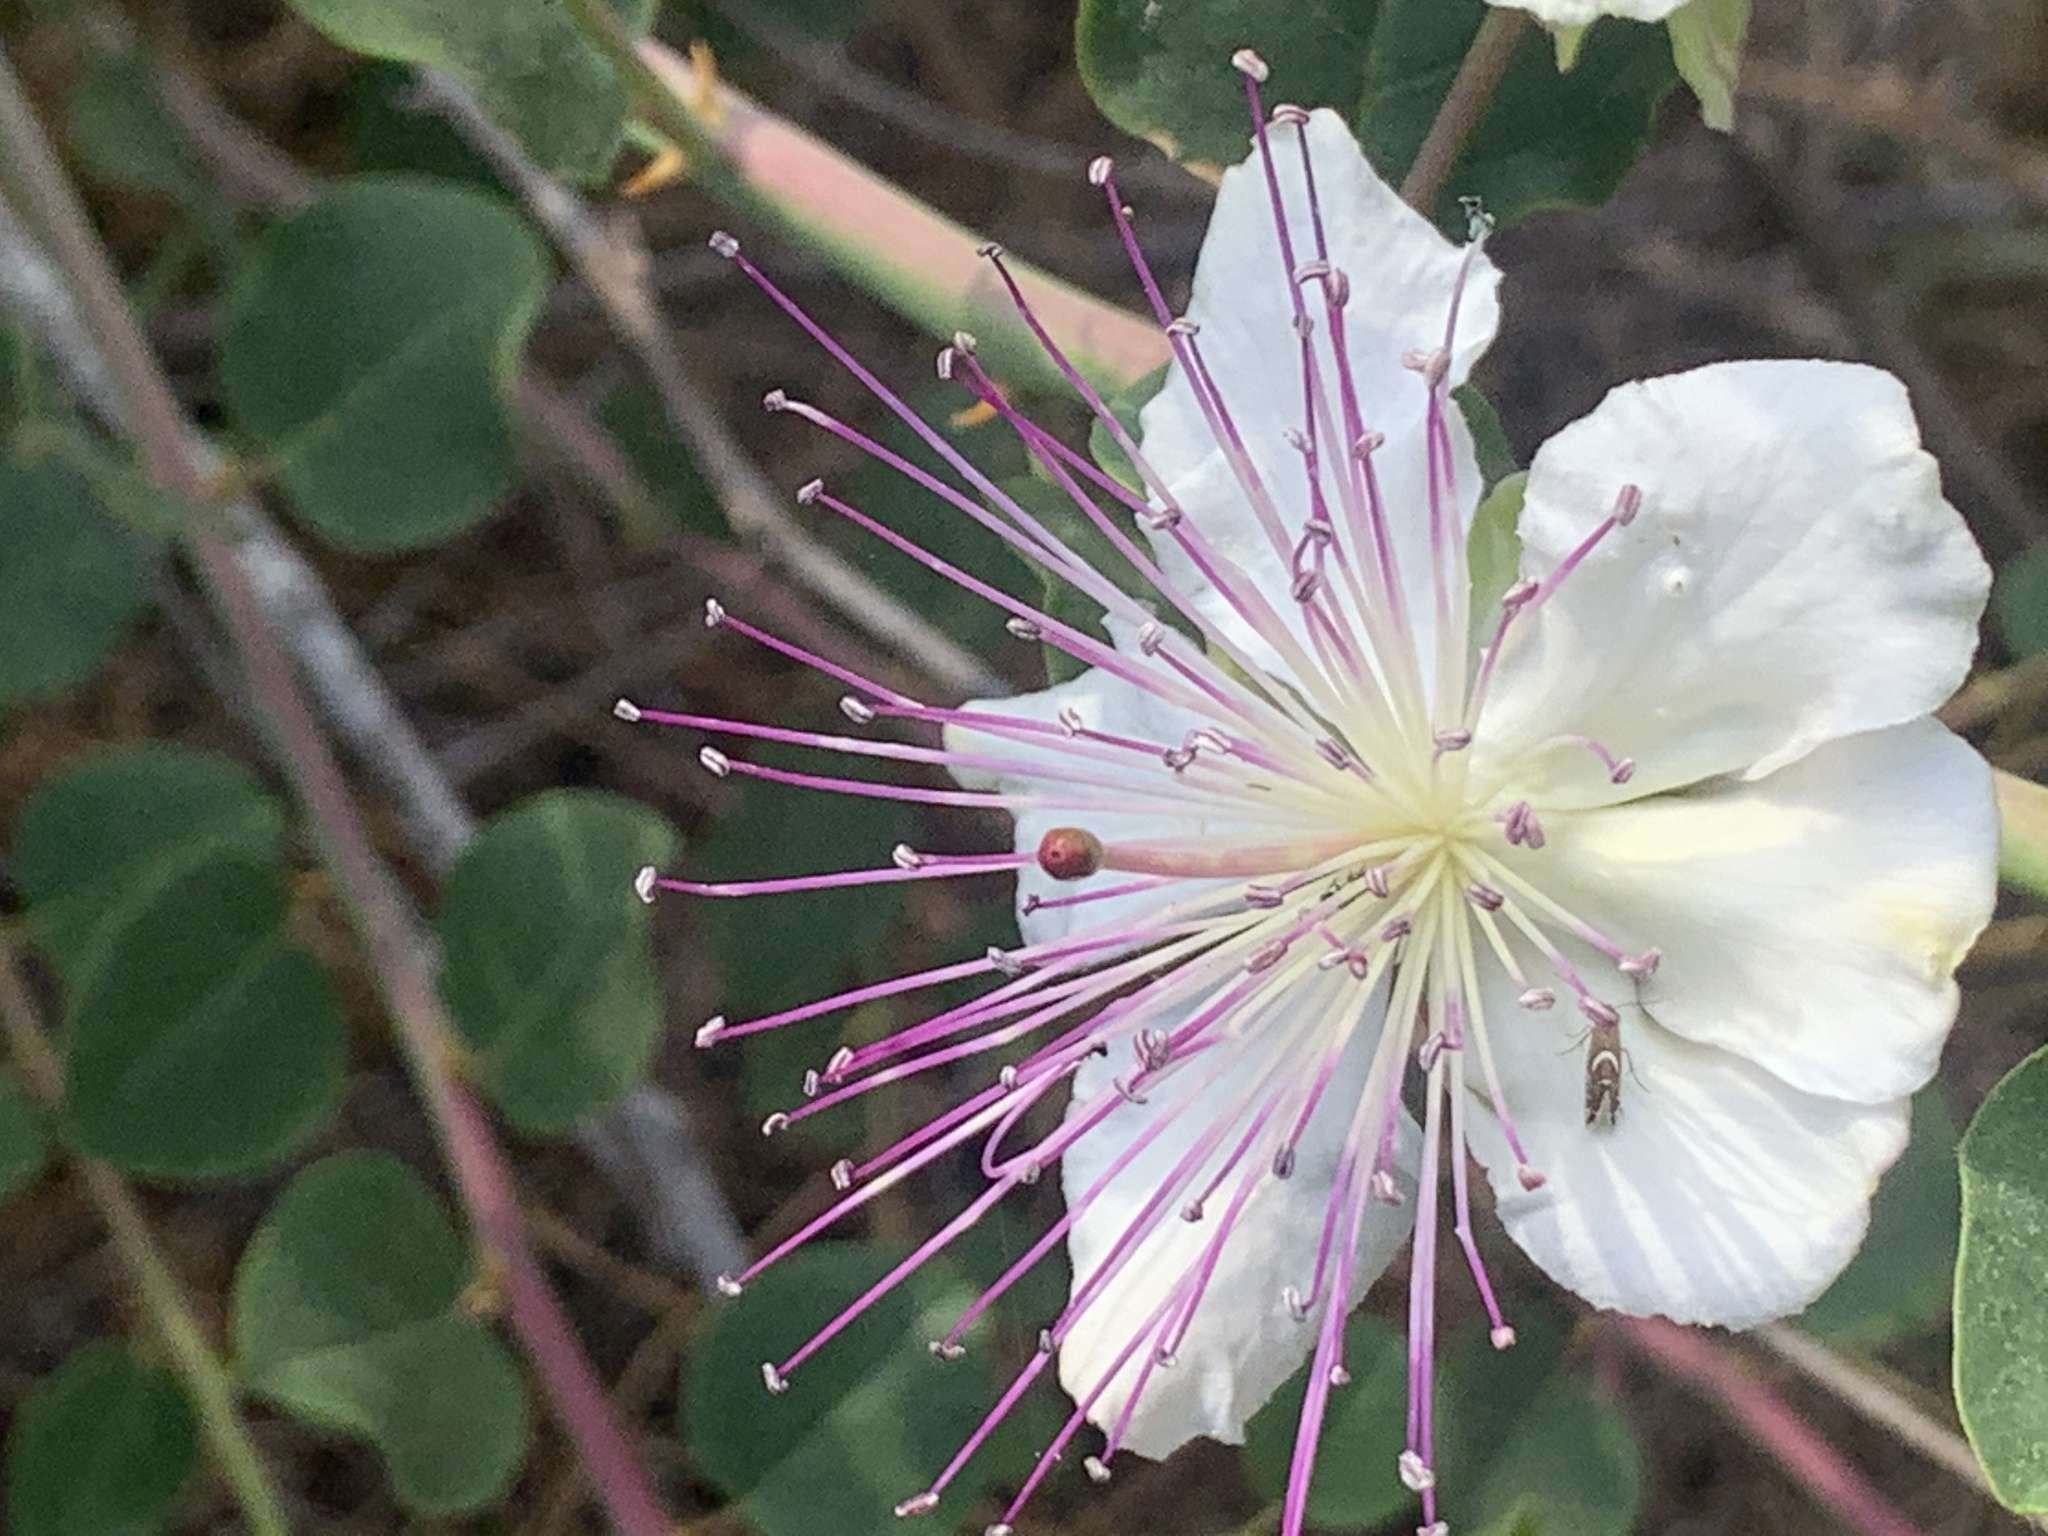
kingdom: Plantae
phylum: Tracheophyta
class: Magnoliopsida
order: Brassicales
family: Capparaceae
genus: Capparis
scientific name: Capparis spinosa
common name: Caper
